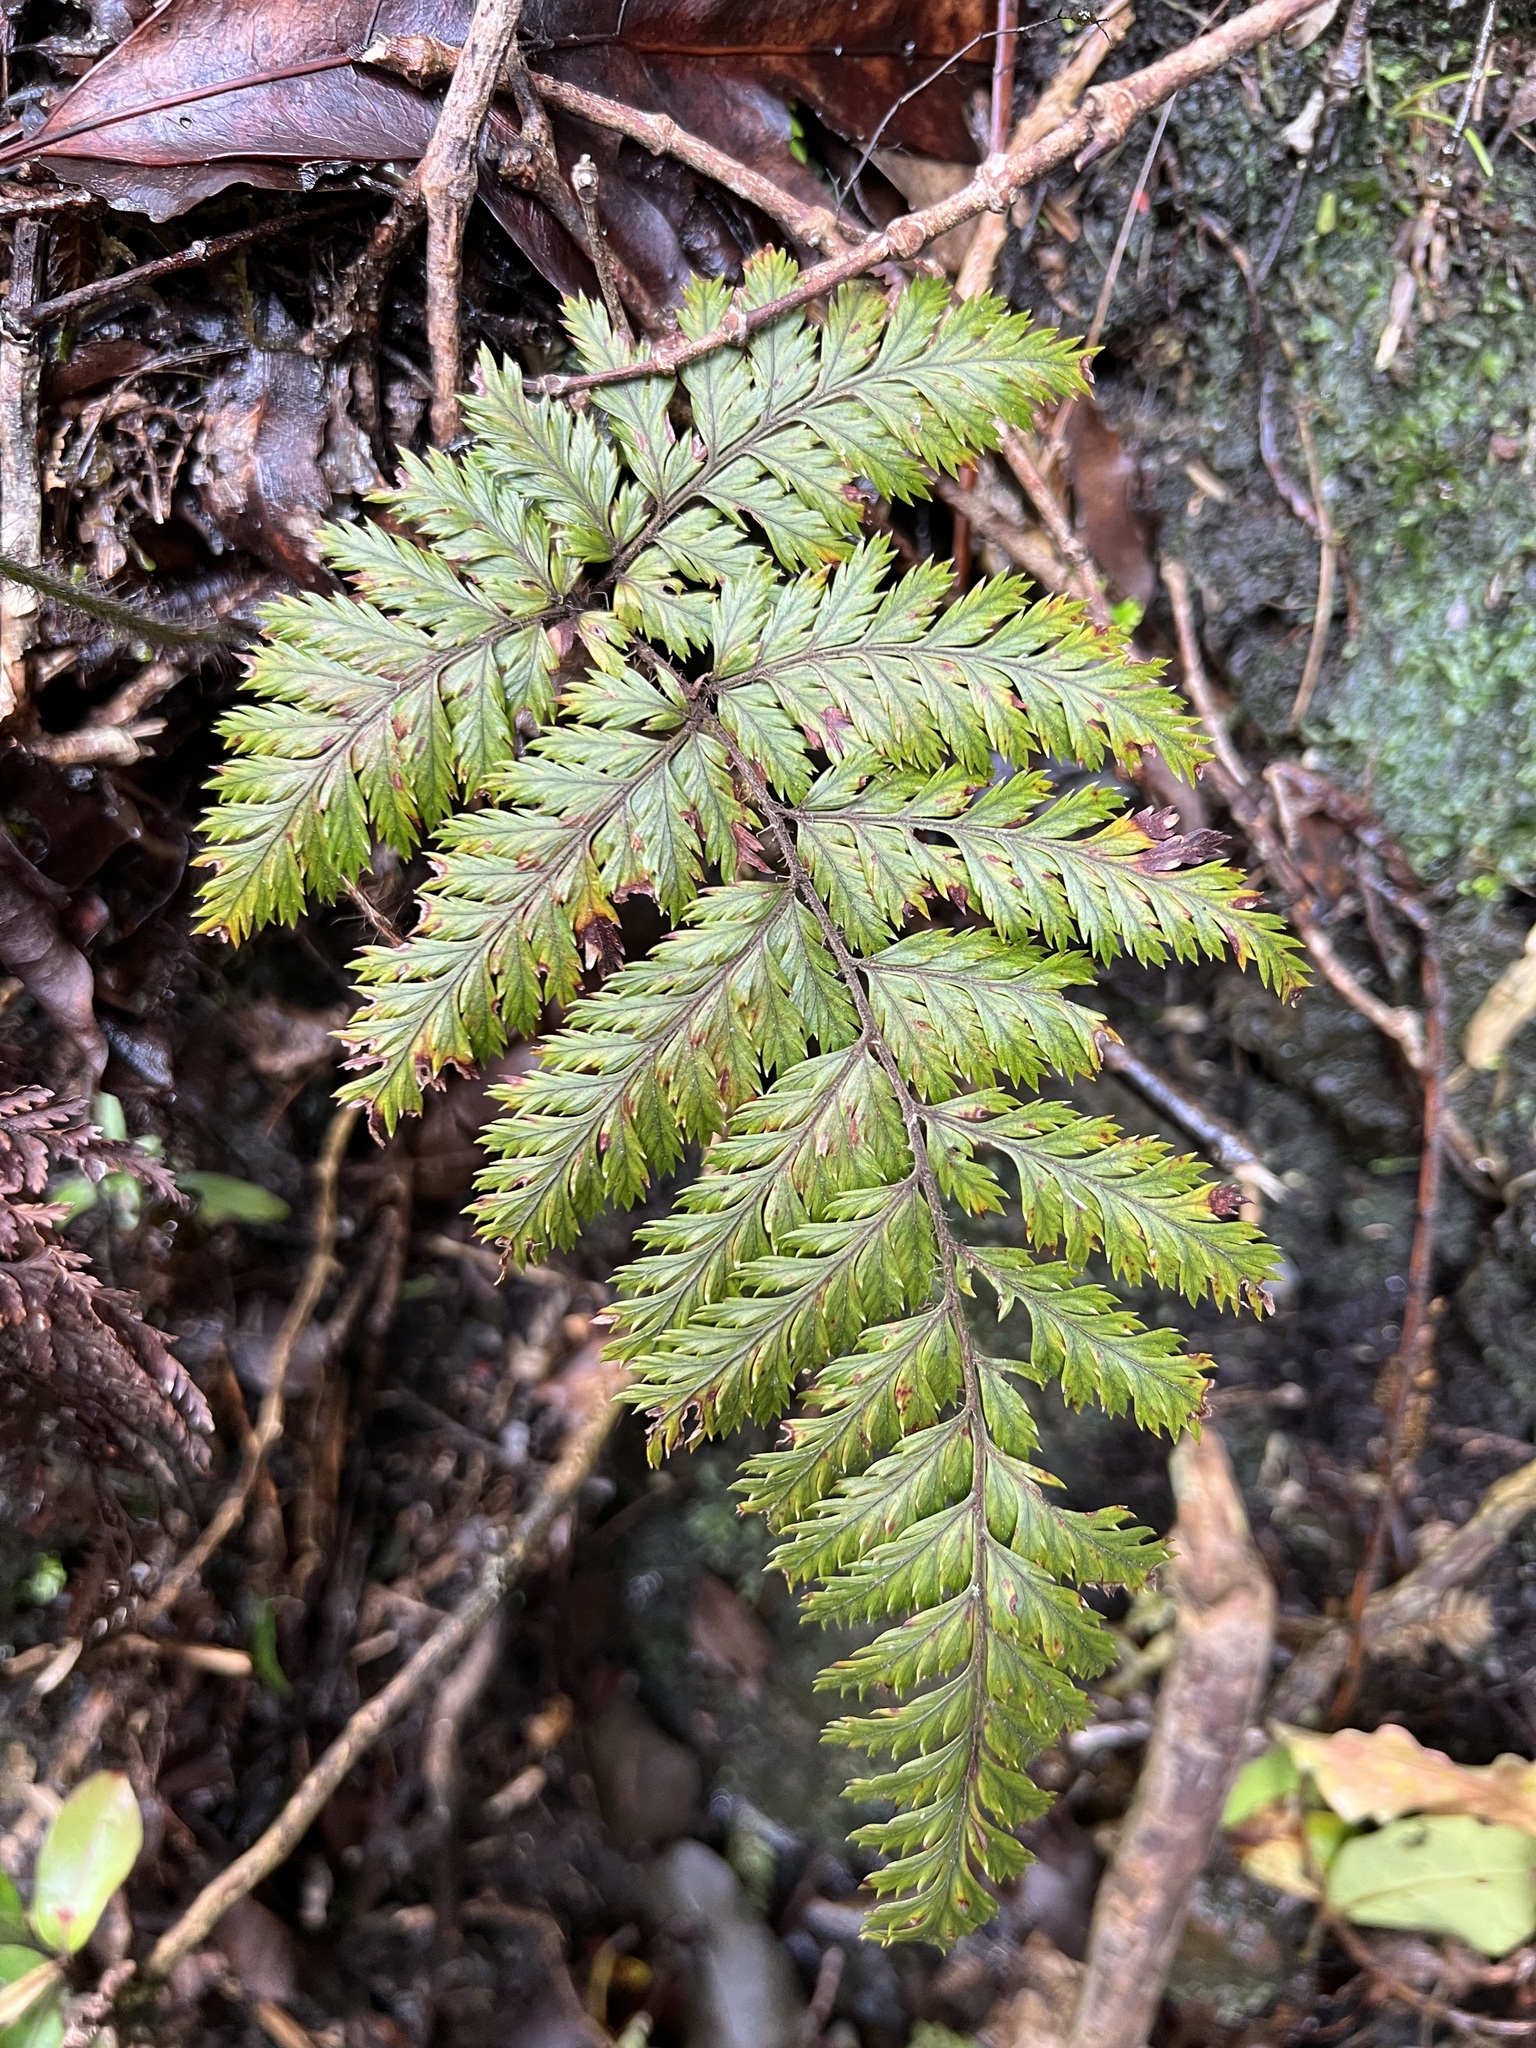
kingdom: Plantae
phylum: Tracheophyta
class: Polypodiopsida
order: Polypodiales
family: Dryopteridaceae
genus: Lastreopsis
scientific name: Lastreopsis hispida
